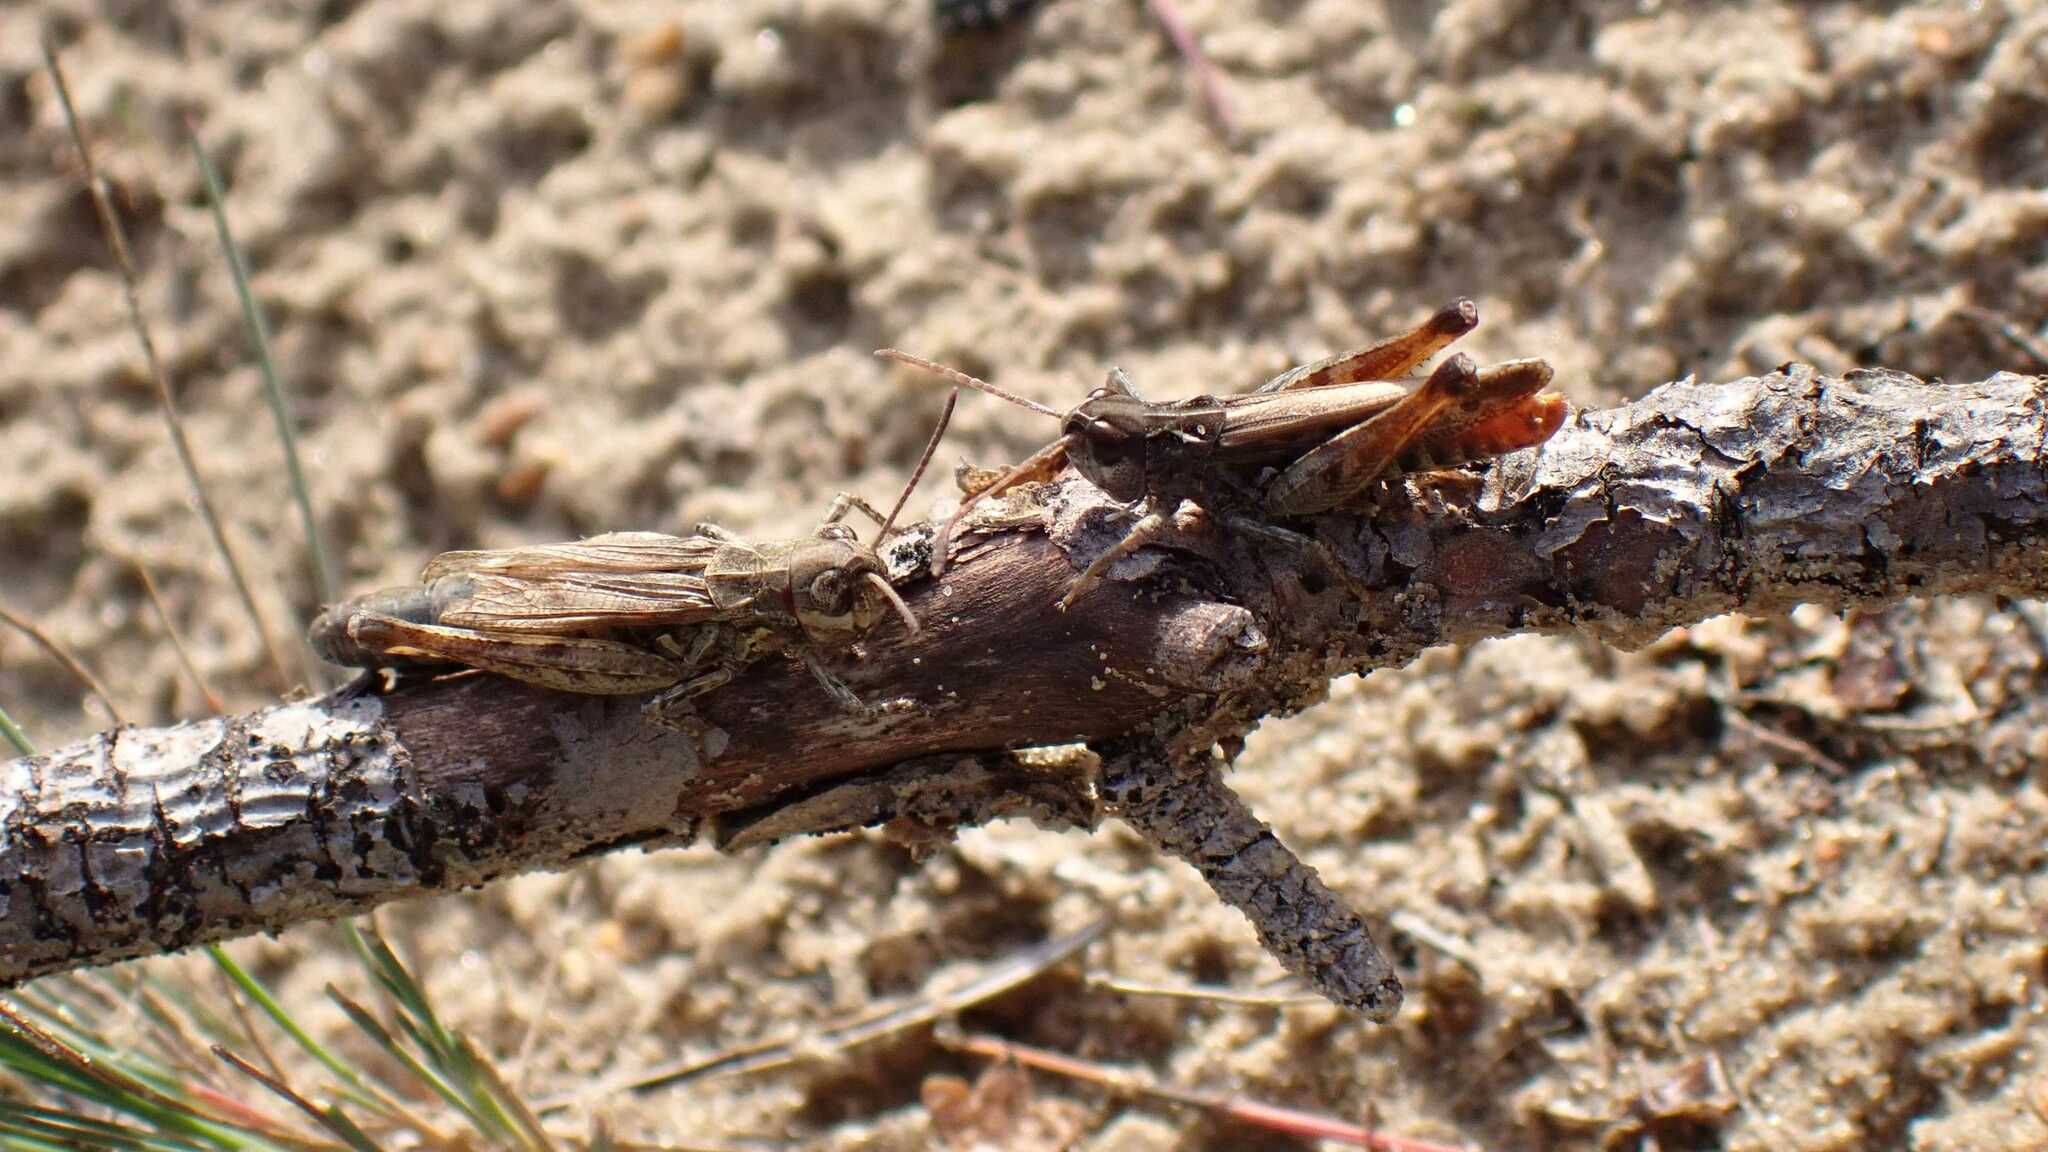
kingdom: Animalia
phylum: Arthropoda
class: Insecta
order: Orthoptera
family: Acrididae
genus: Myrmeleotettix
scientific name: Myrmeleotettix maculatus
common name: Mottled grasshopper
